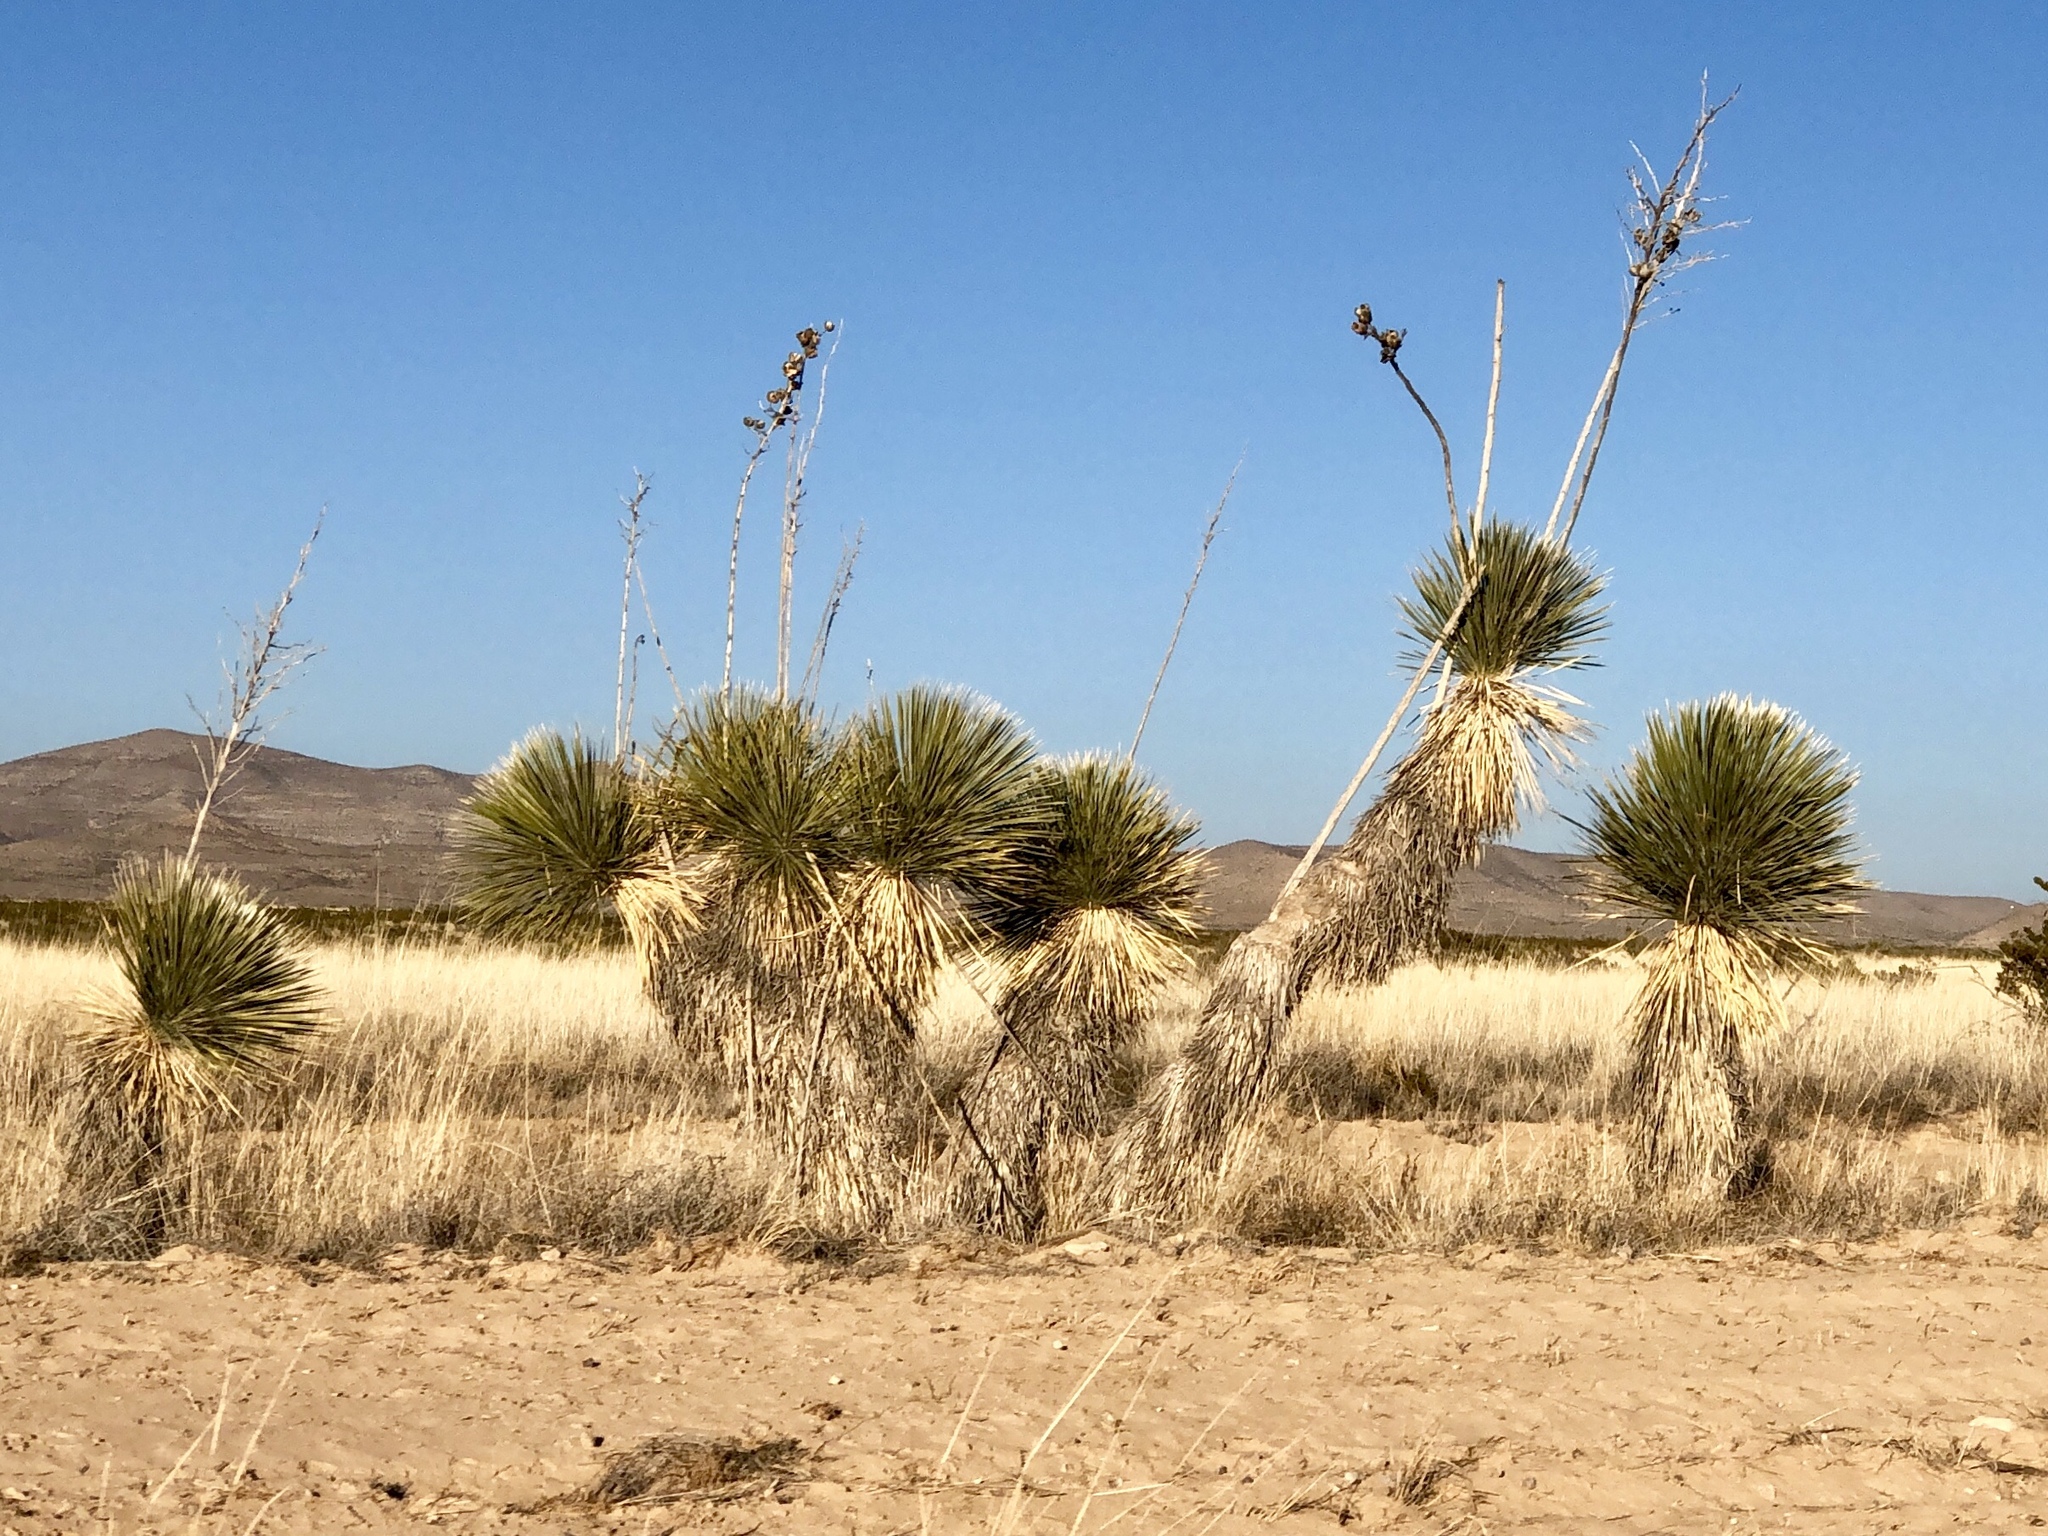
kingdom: Plantae
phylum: Tracheophyta
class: Liliopsida
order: Asparagales
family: Asparagaceae
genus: Yucca
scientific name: Yucca elata
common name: Palmella
